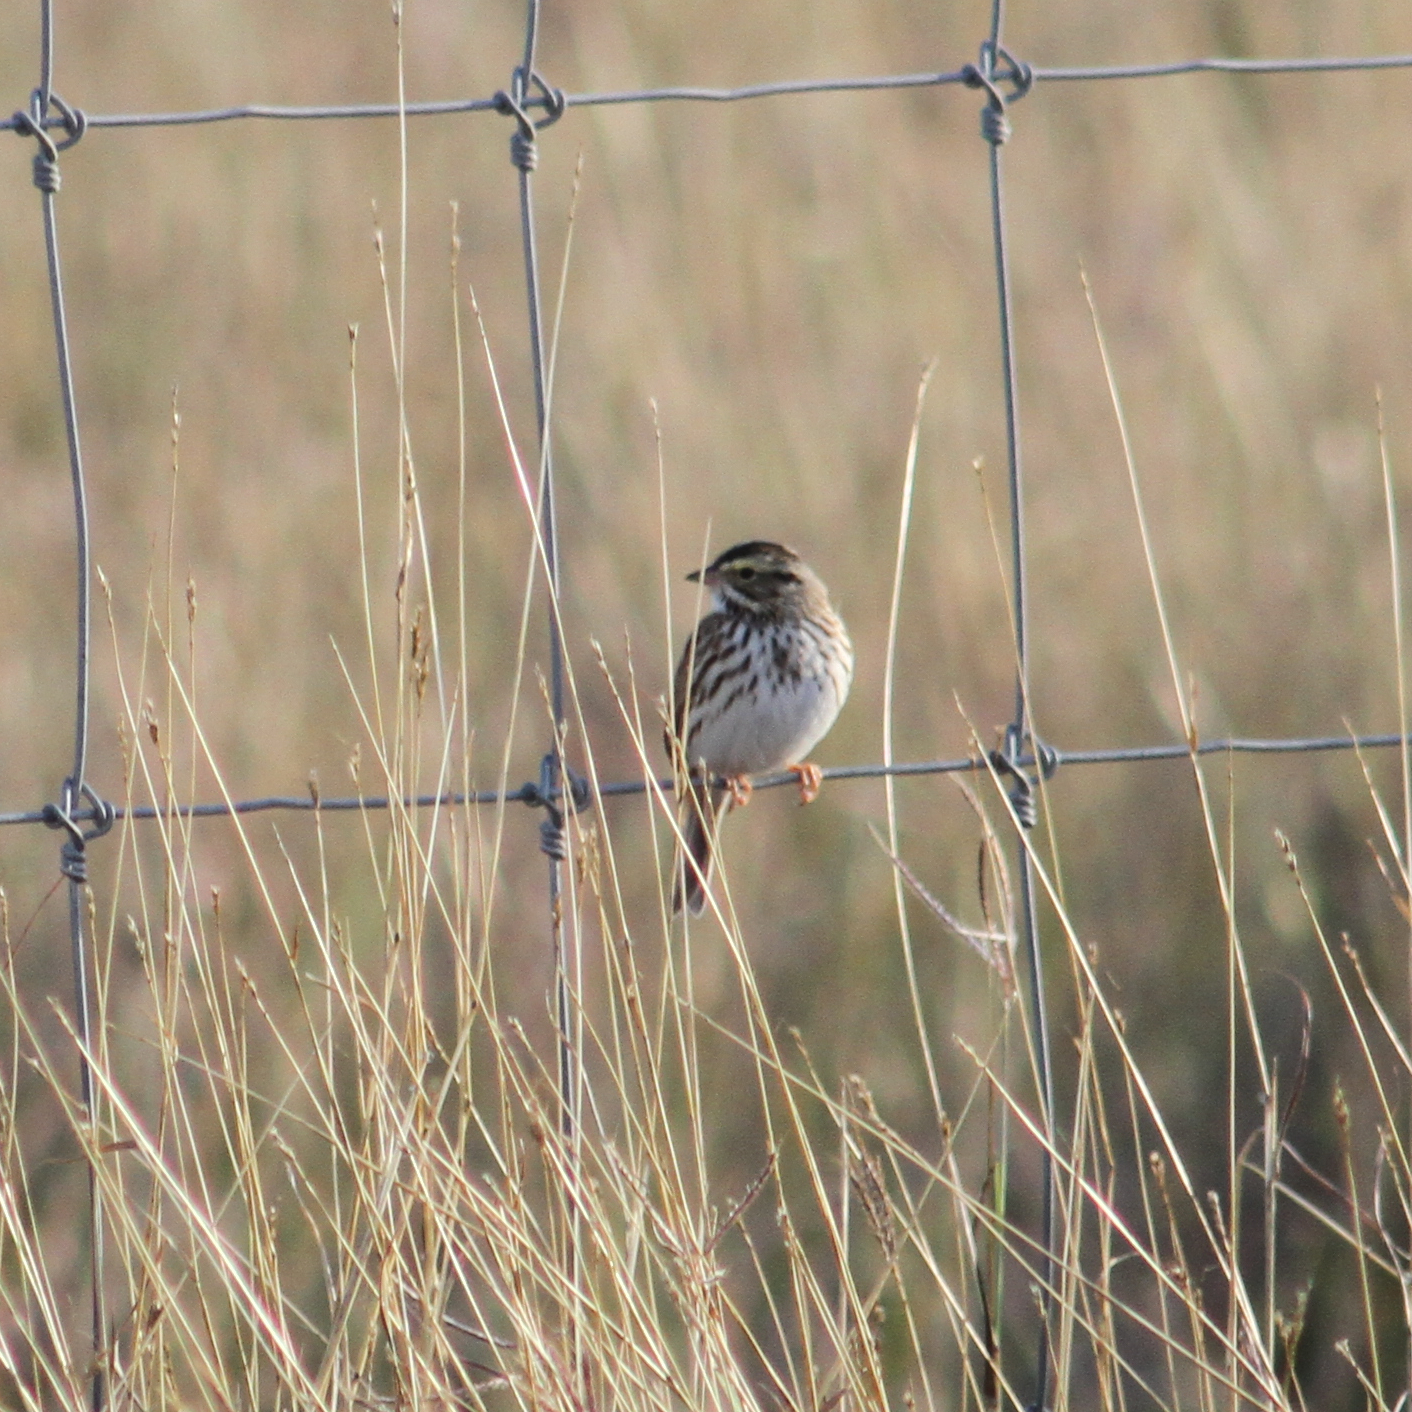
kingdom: Animalia
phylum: Chordata
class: Aves
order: Passeriformes
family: Passerellidae
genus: Passerculus
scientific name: Passerculus sandwichensis
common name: Savannah sparrow
